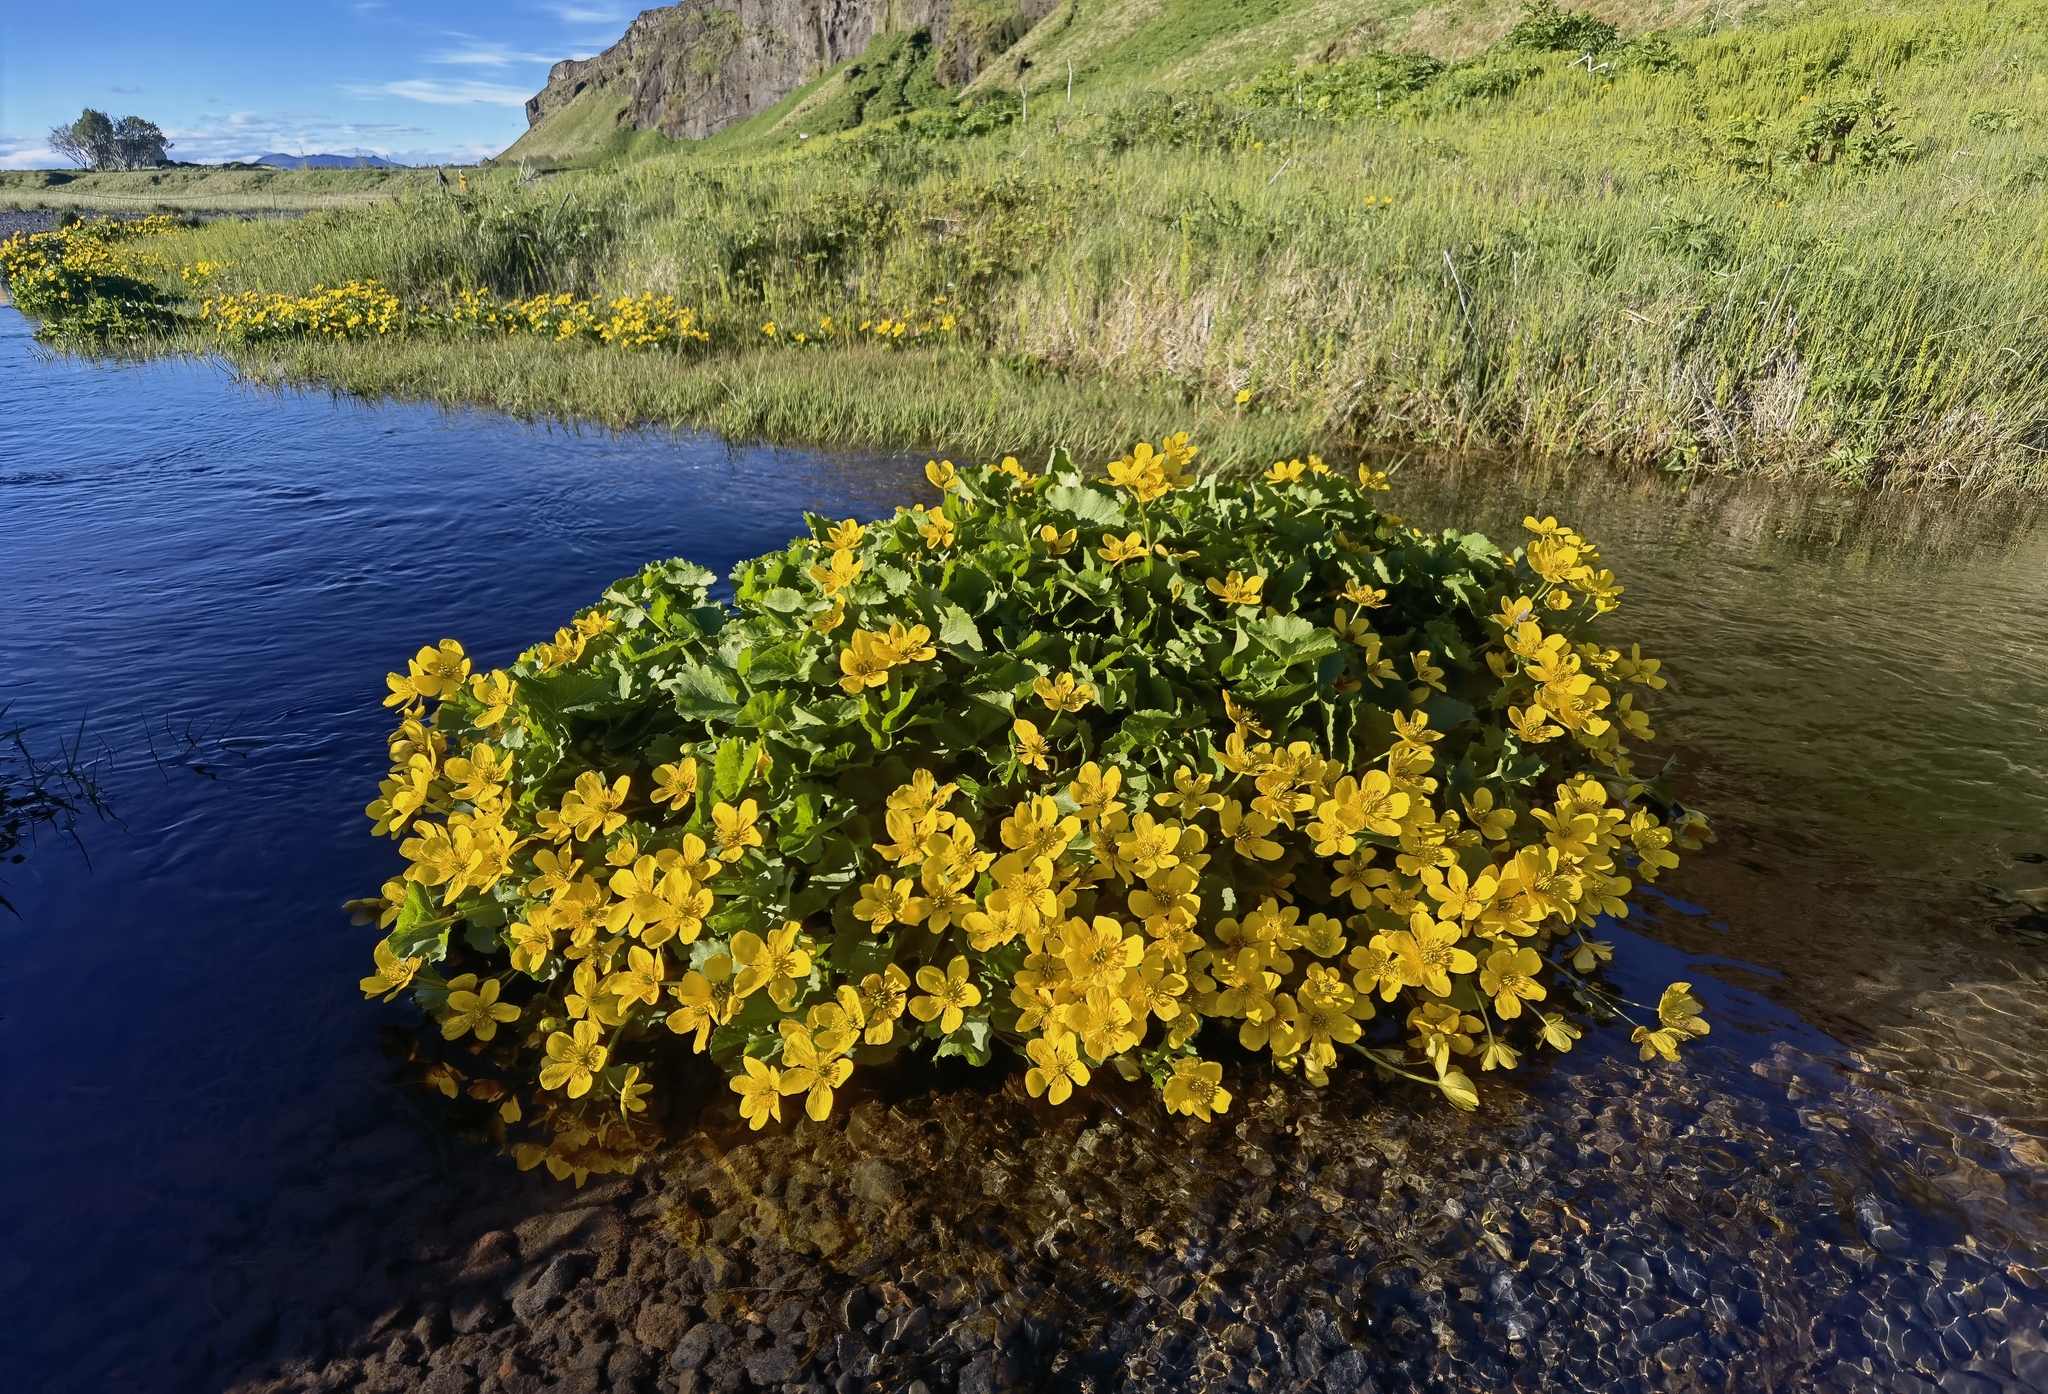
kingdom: Plantae
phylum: Tracheophyta
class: Magnoliopsida
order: Ranunculales
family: Ranunculaceae
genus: Caltha
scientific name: Caltha palustris
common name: Marsh marigold
